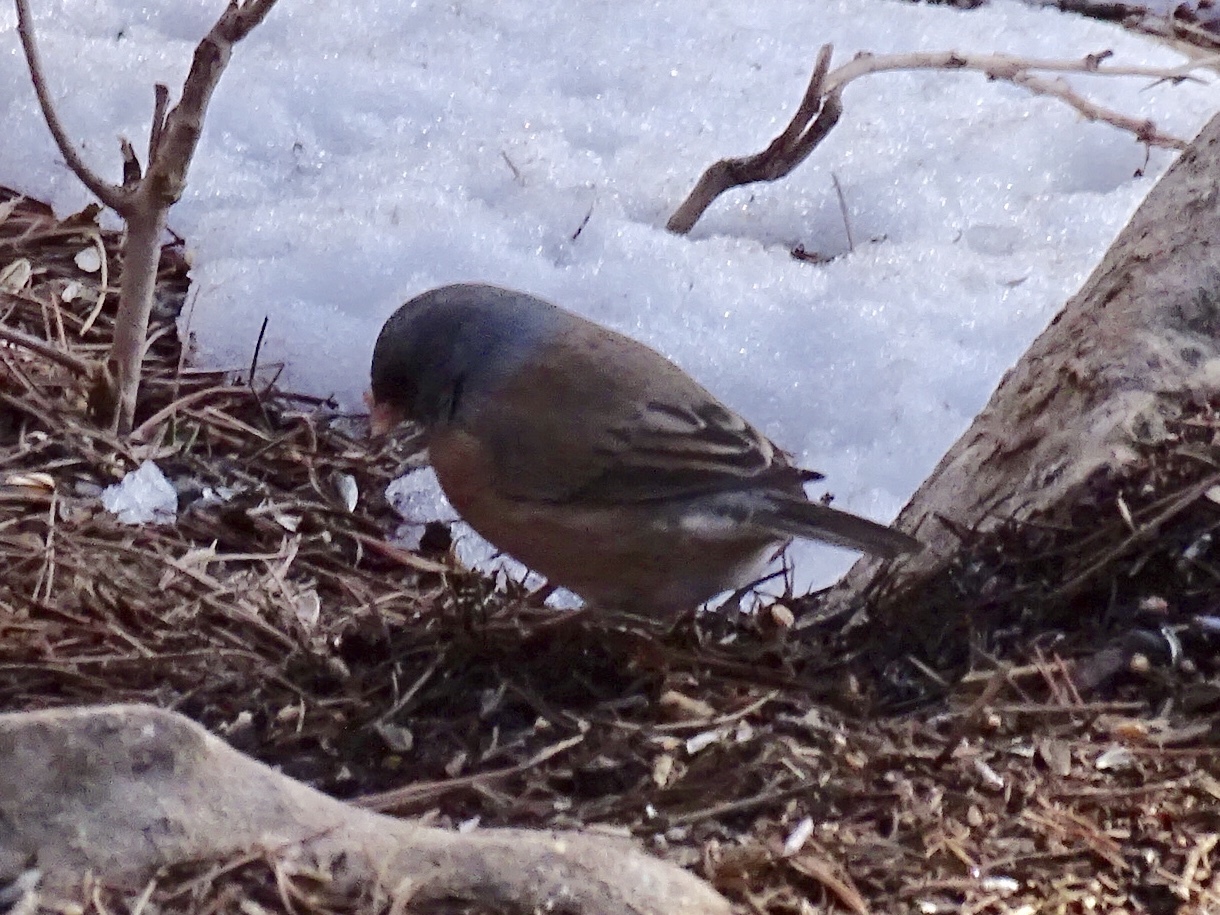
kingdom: Animalia
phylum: Chordata
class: Aves
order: Passeriformes
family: Passerellidae
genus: Junco
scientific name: Junco hyemalis
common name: Dark-eyed junco
